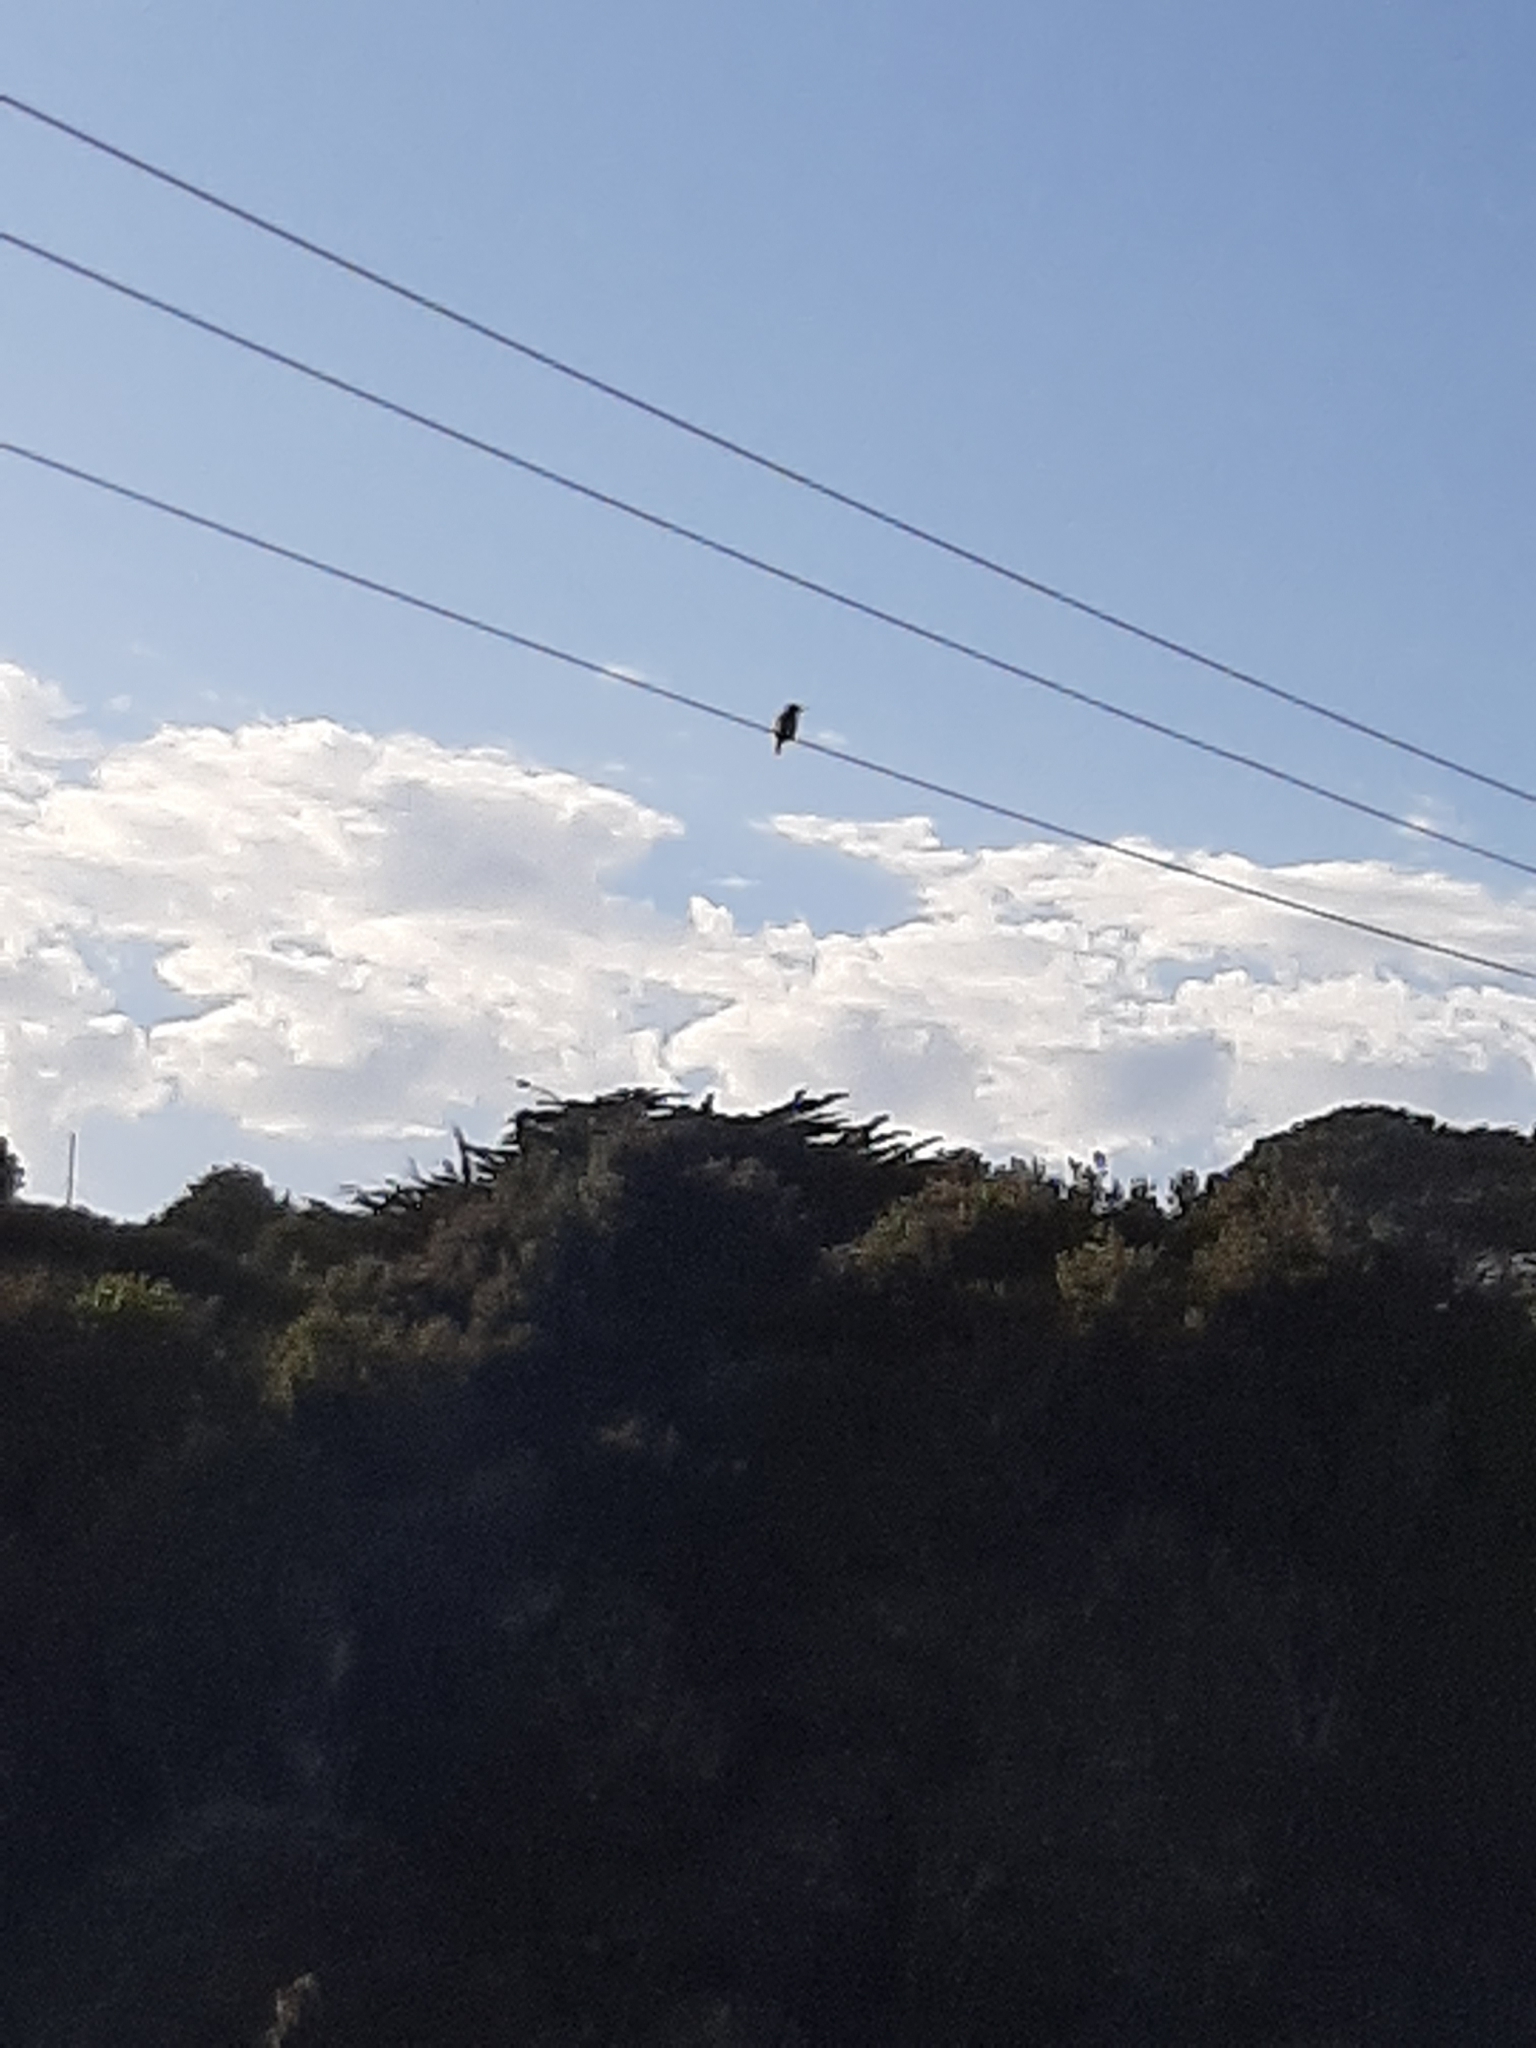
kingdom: Animalia
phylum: Chordata
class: Aves
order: Coraciiformes
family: Alcedinidae
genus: Todiramphus
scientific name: Todiramphus sanctus
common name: Sacred kingfisher
